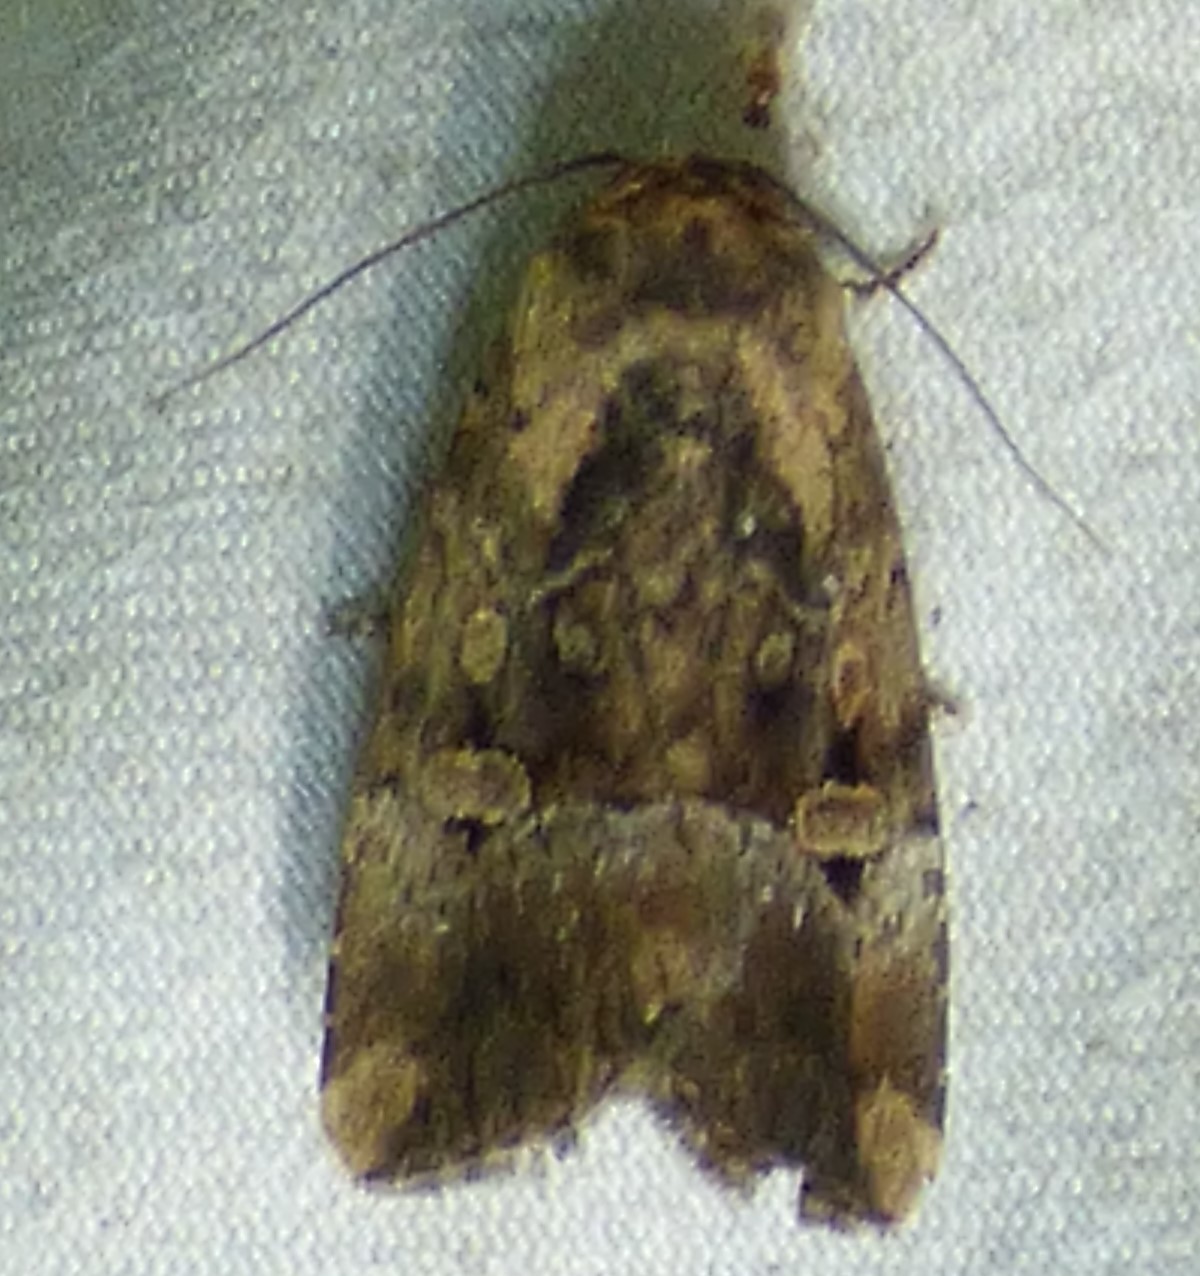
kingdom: Animalia
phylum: Arthropoda
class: Insecta
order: Lepidoptera
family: Noctuidae
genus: Elaphria
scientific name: Elaphria chalcedonia
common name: Chalcedony midget
